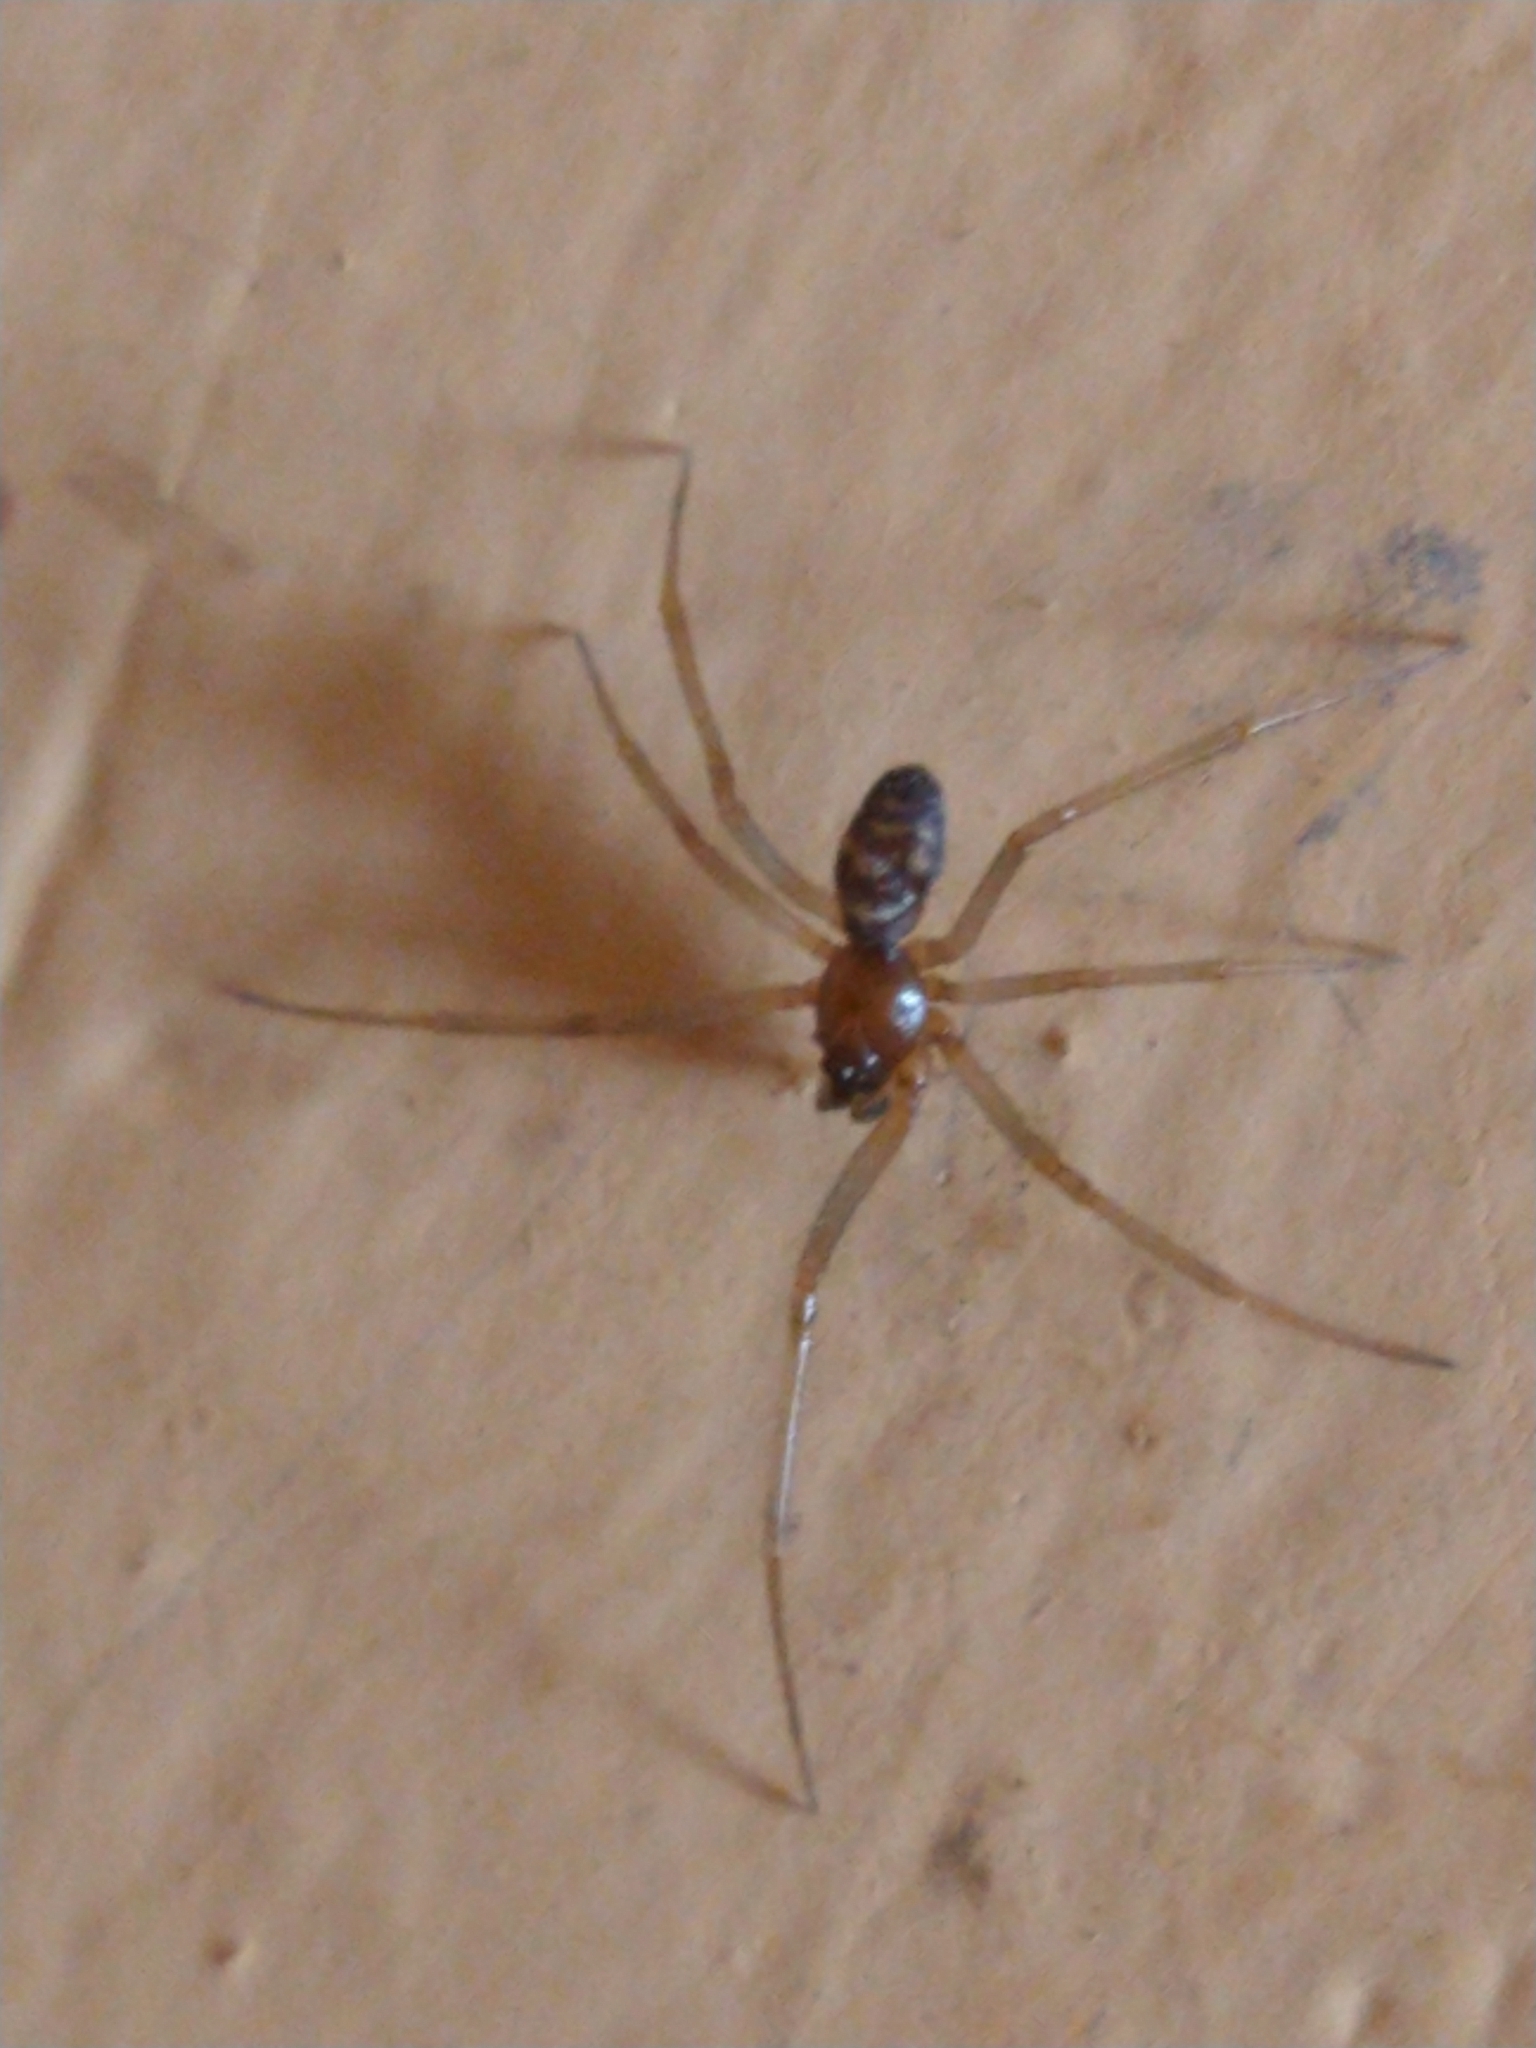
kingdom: Animalia
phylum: Arthropoda
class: Arachnida
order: Araneae
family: Theridiidae
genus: Steatoda
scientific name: Steatoda grossa
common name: False black widow
